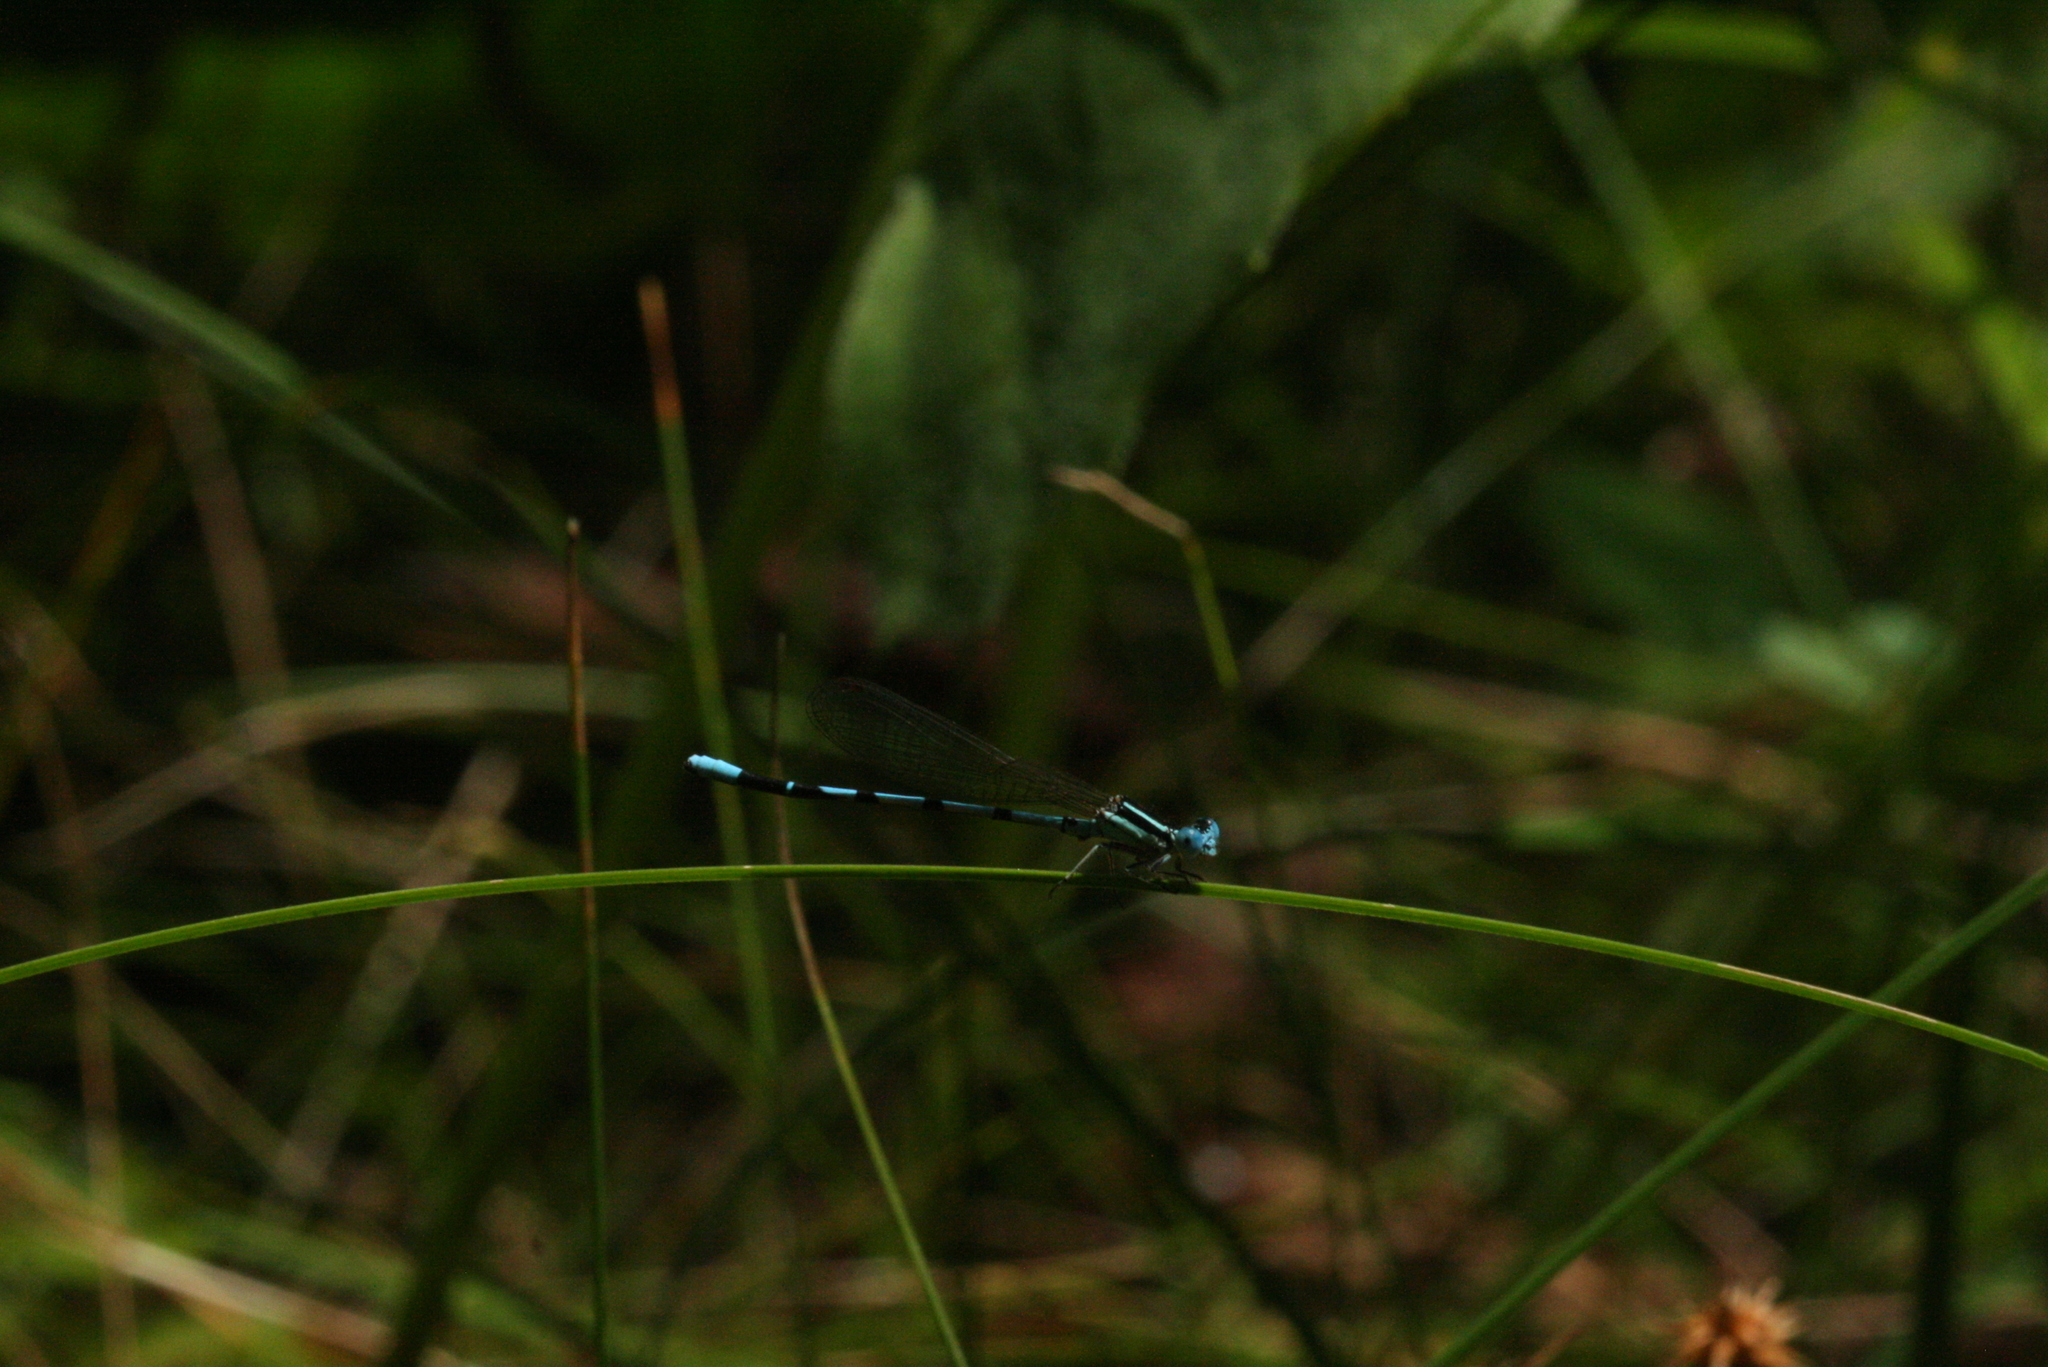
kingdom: Animalia
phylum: Arthropoda
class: Insecta
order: Odonata
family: Coenagrionidae
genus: Argia
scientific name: Argia bipunctulata
